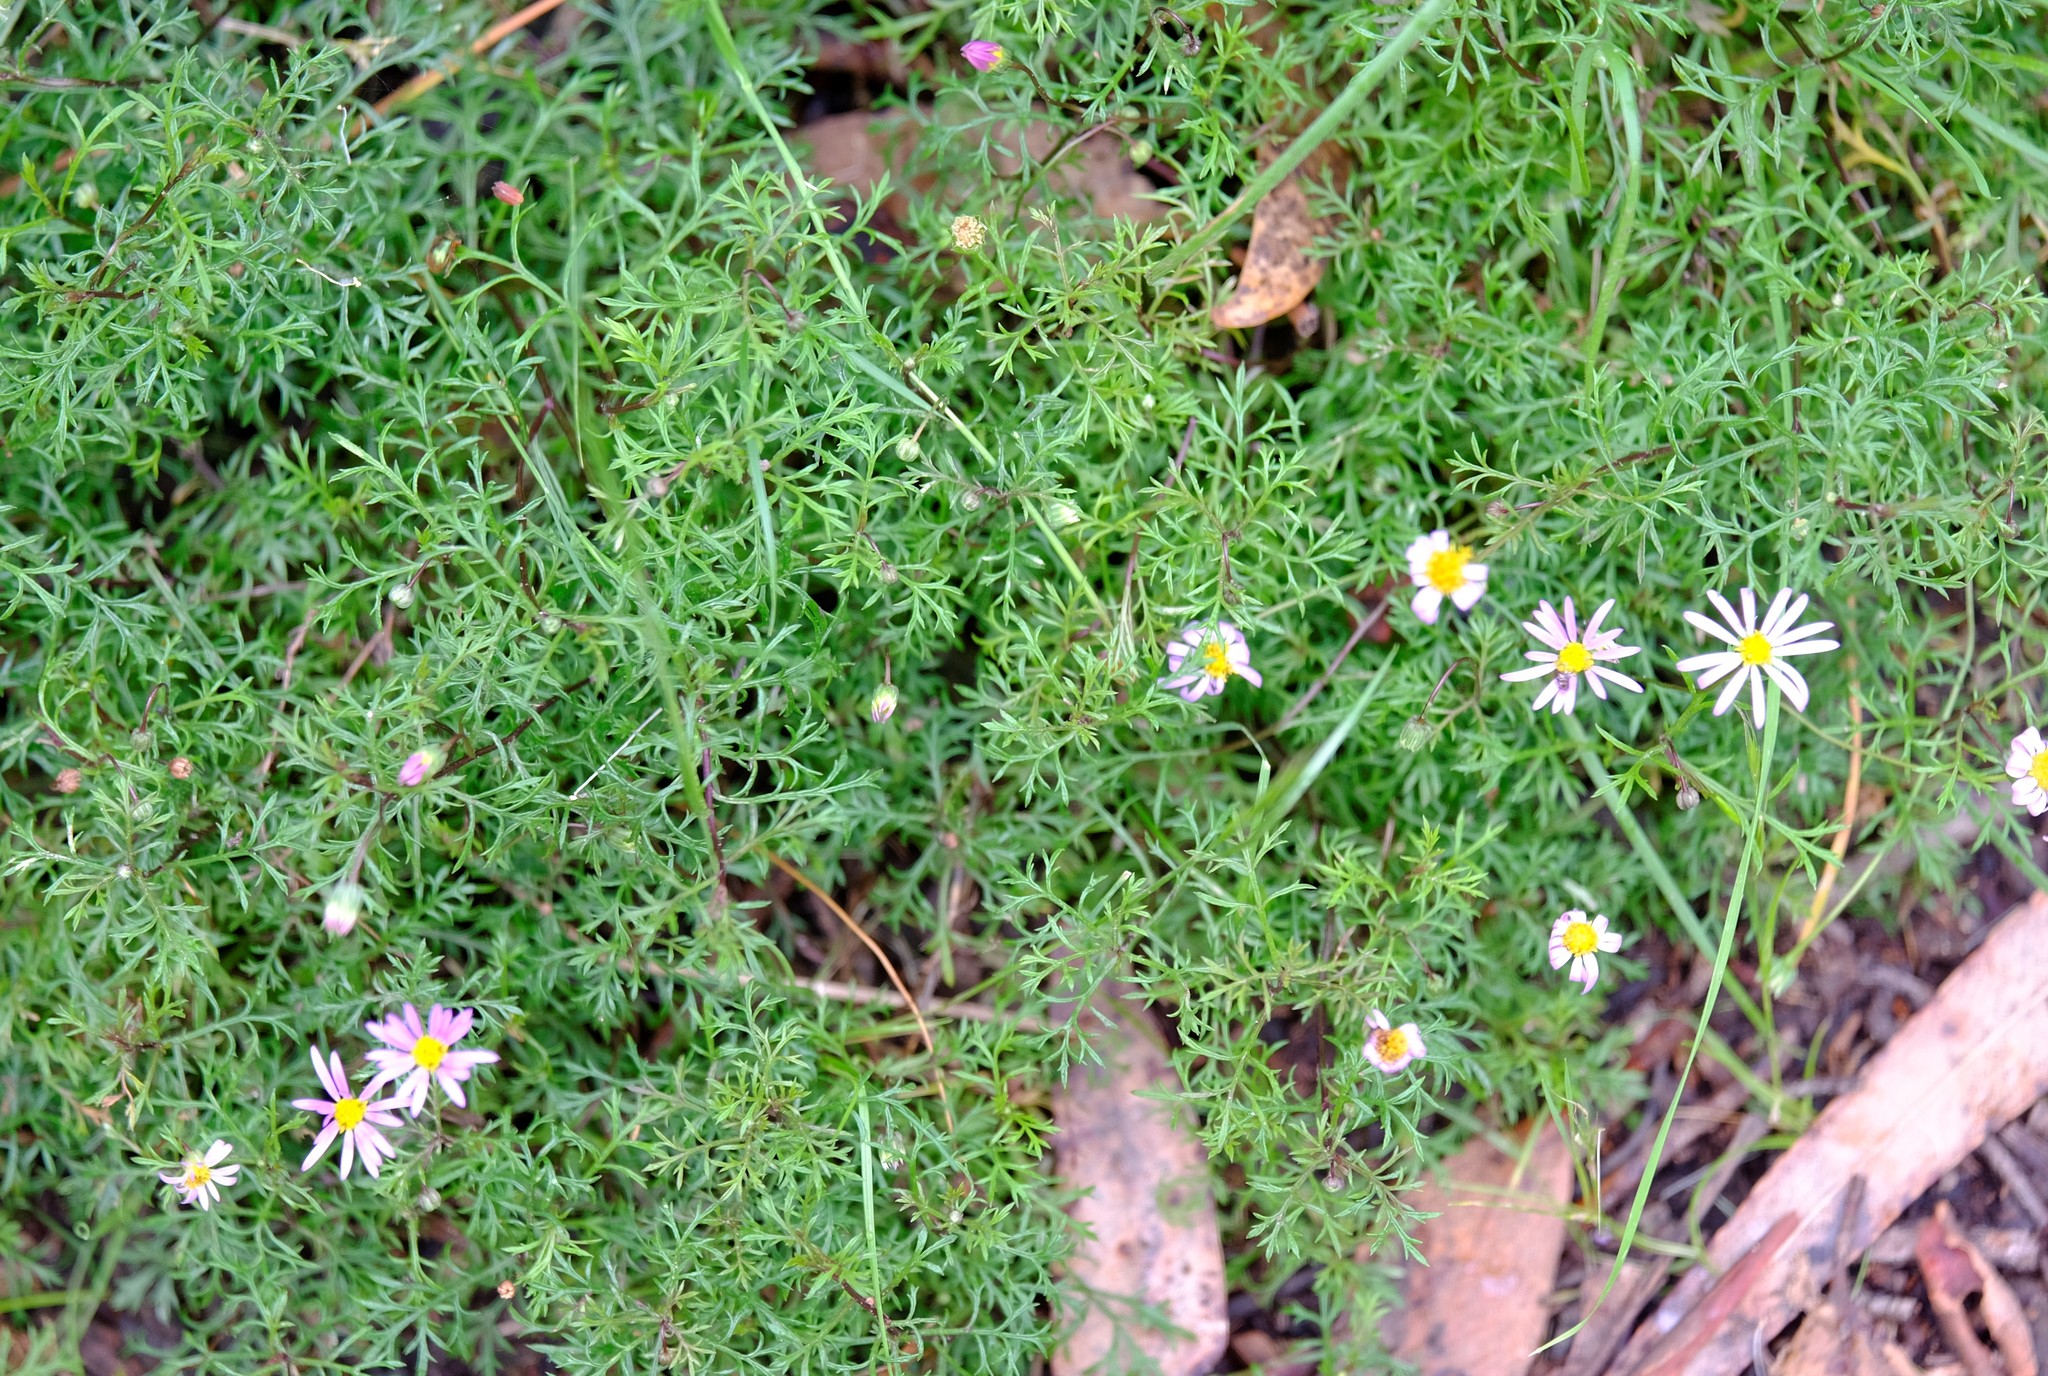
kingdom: Plantae
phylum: Tracheophyta
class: Magnoliopsida
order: Asterales
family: Asteraceae
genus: Brachyscome
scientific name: Brachyscome multifida
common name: Cut-leaf daisy
